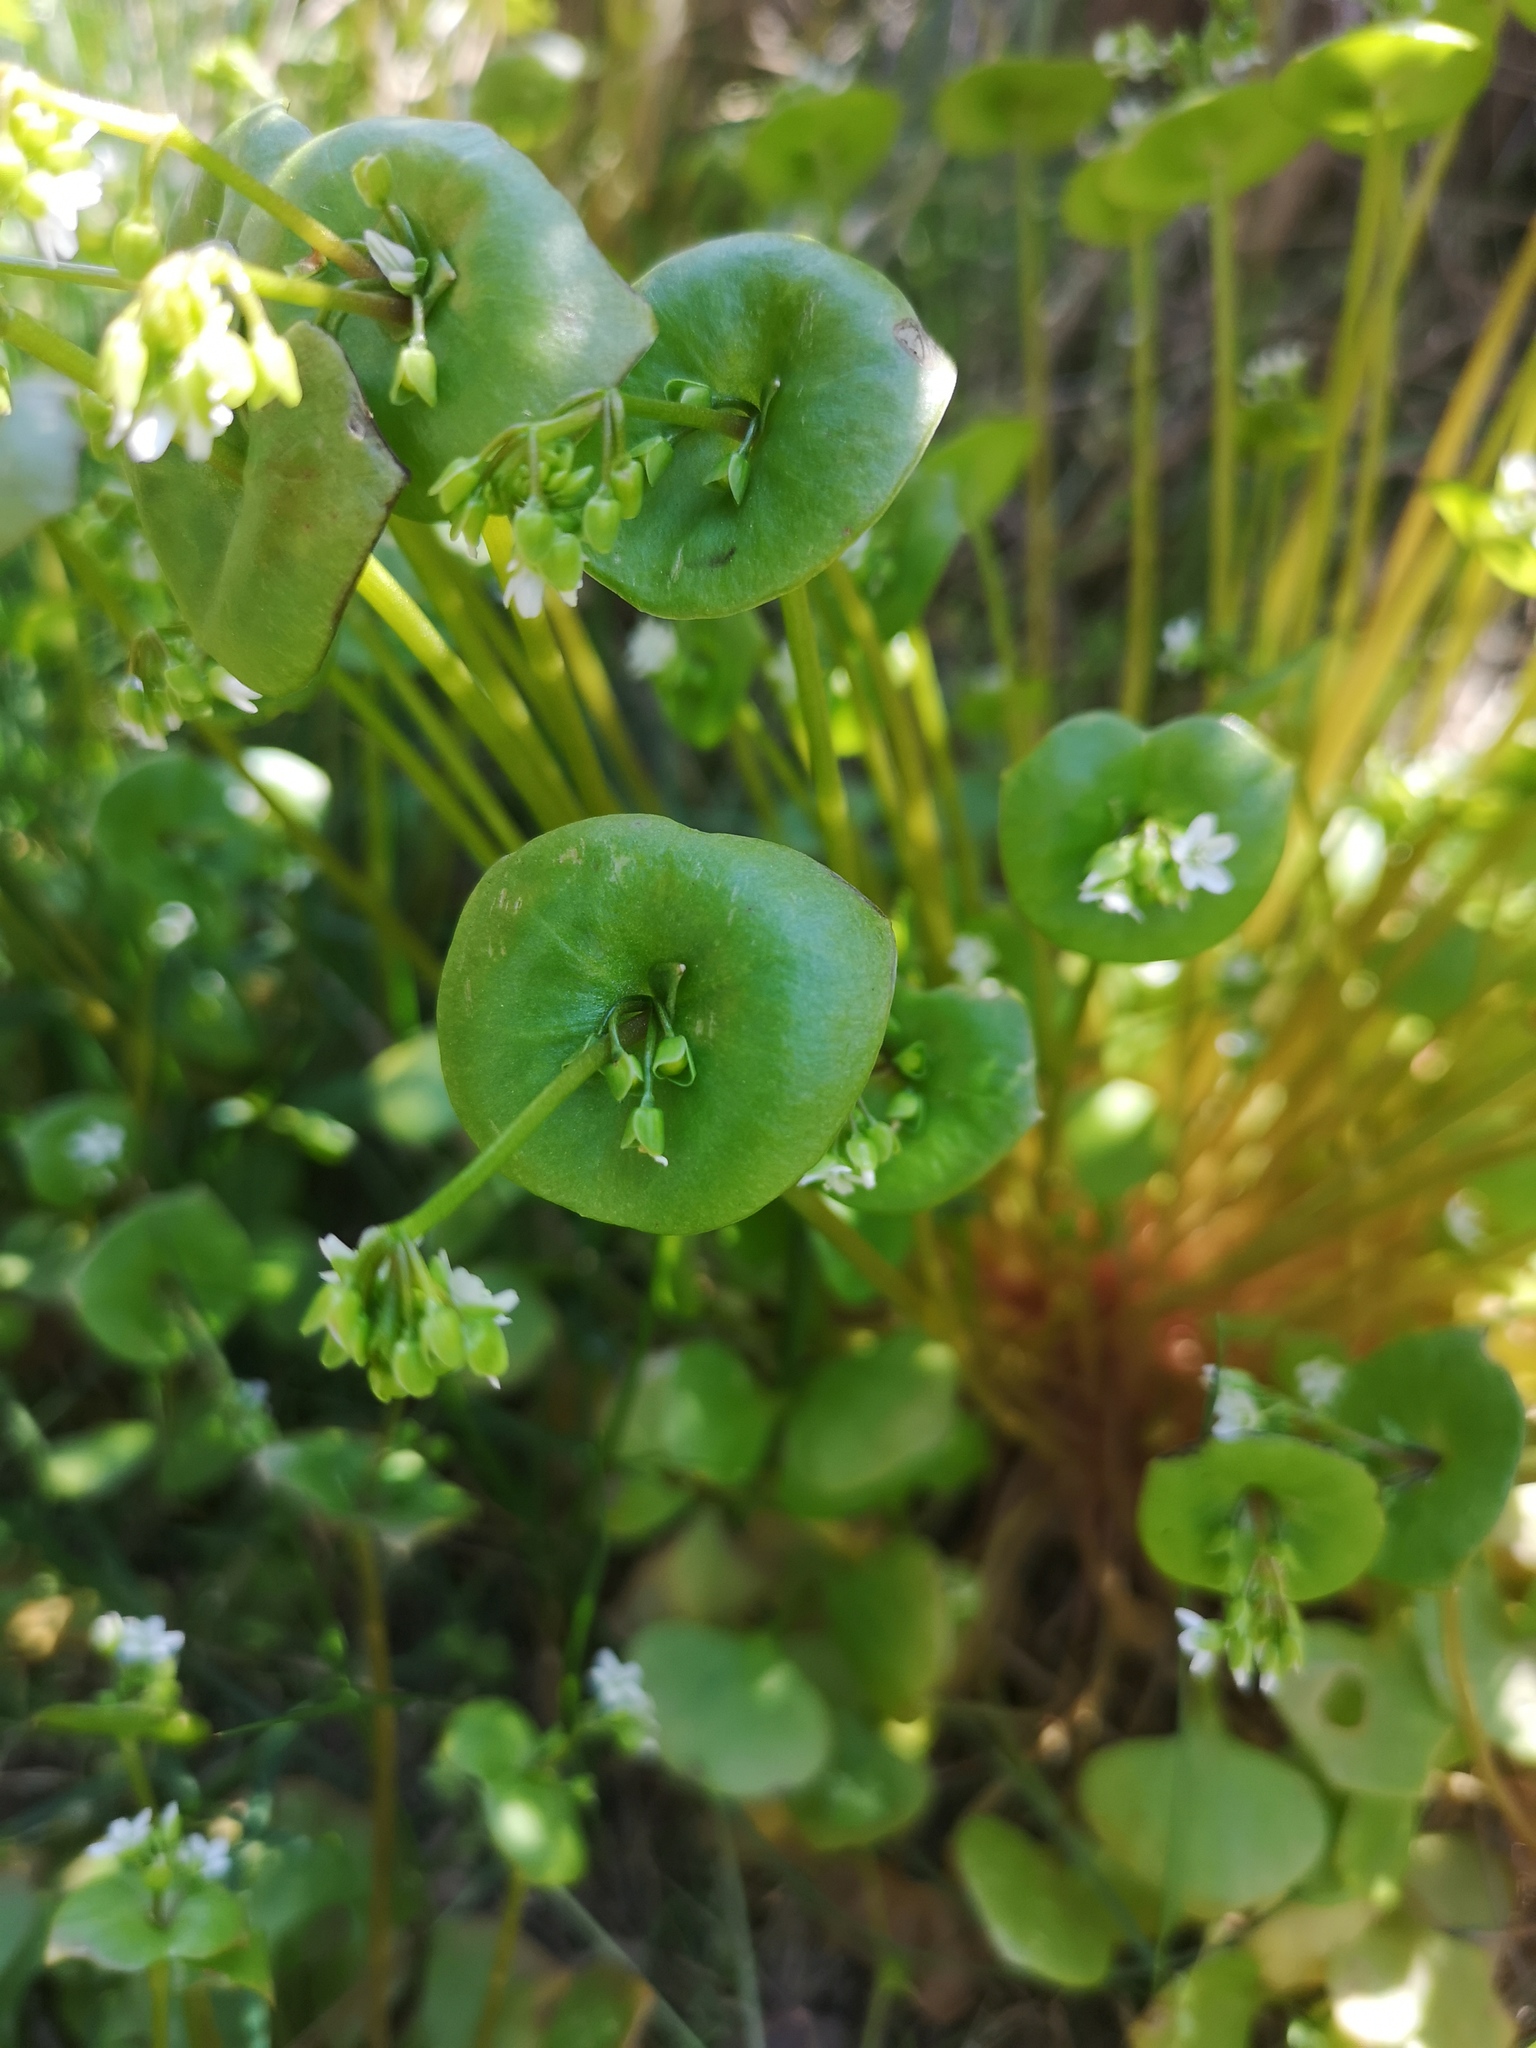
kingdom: Plantae
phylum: Tracheophyta
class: Magnoliopsida
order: Caryophyllales
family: Montiaceae
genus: Claytonia
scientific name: Claytonia perfoliata
